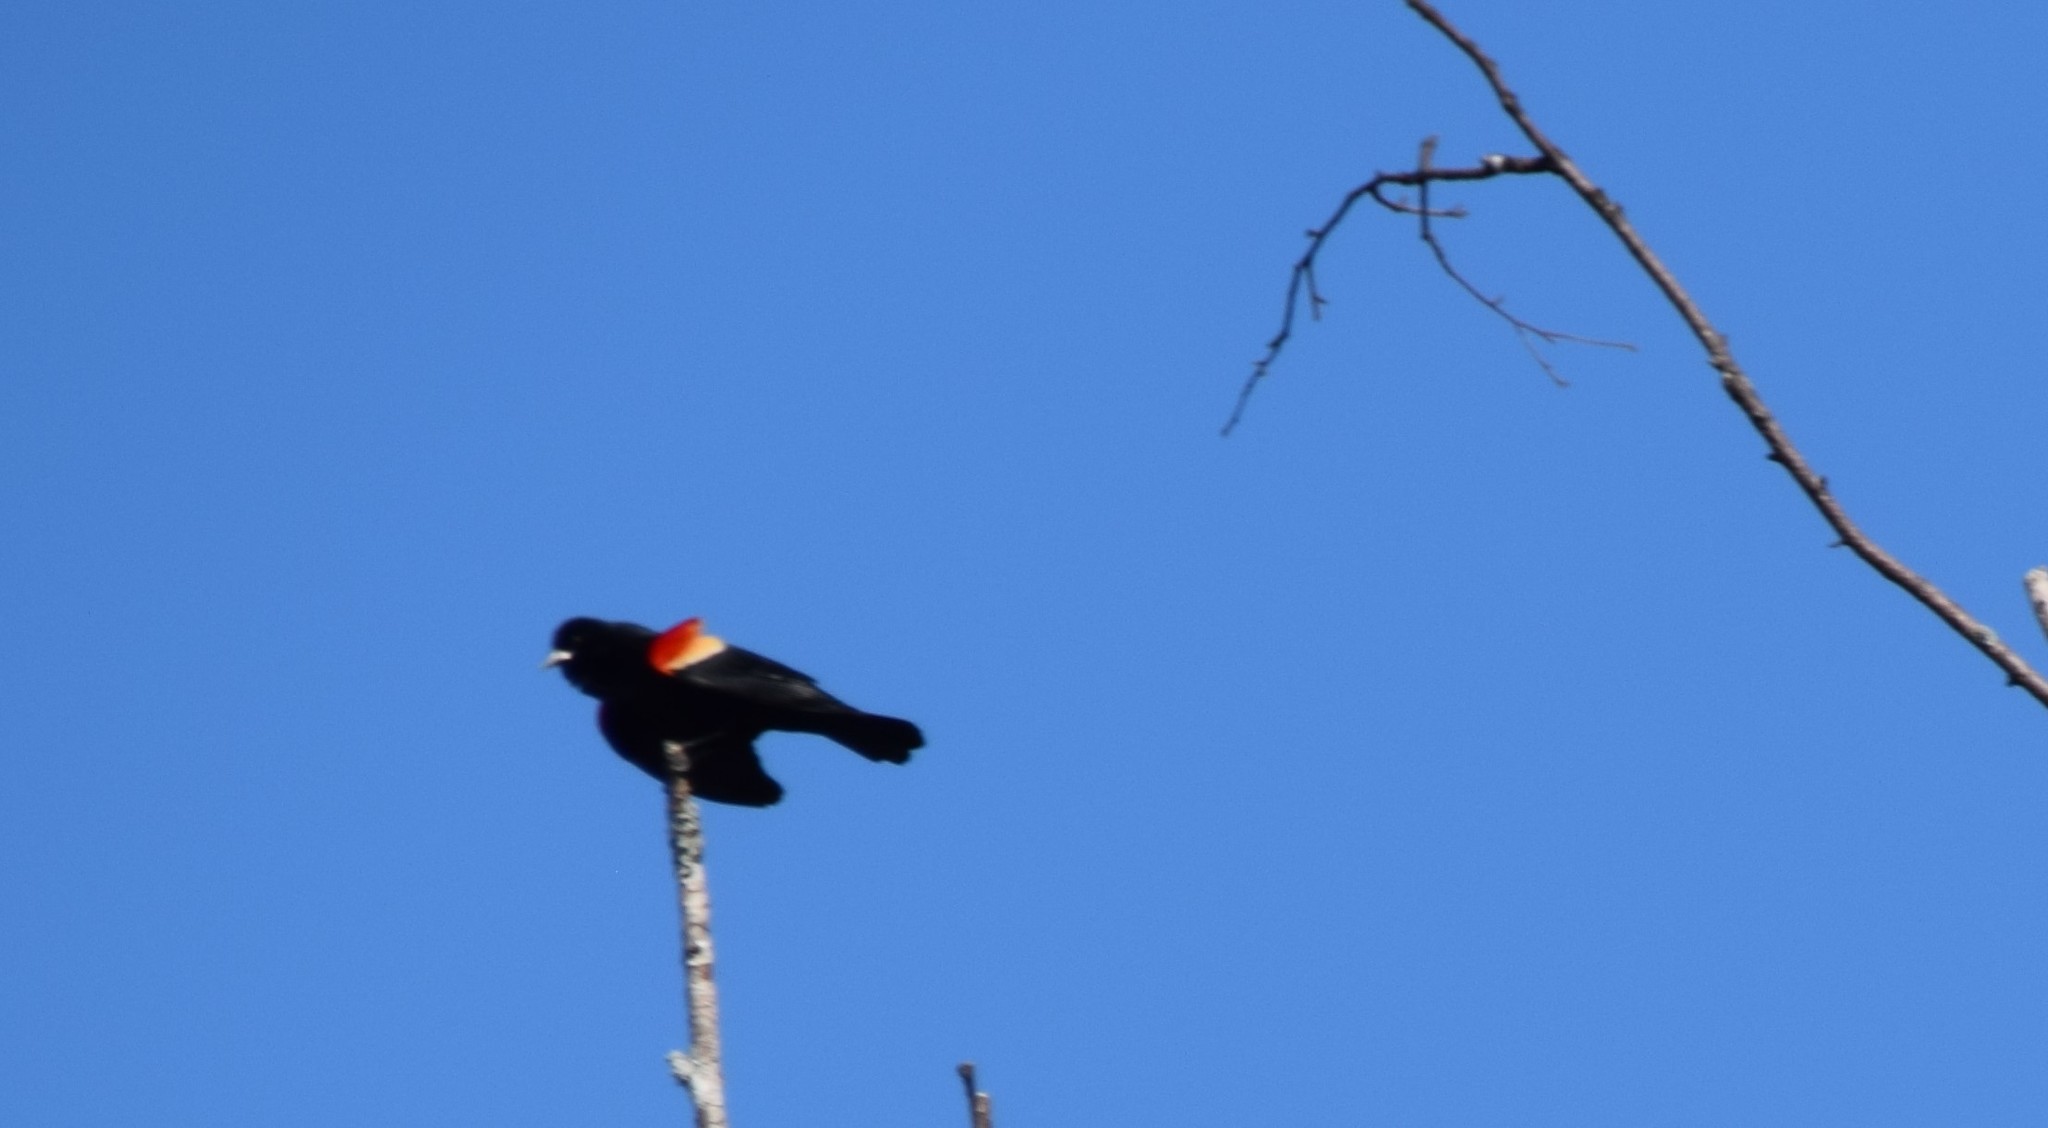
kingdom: Animalia
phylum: Chordata
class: Aves
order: Passeriformes
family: Icteridae
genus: Agelaius
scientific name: Agelaius phoeniceus
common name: Red-winged blackbird
